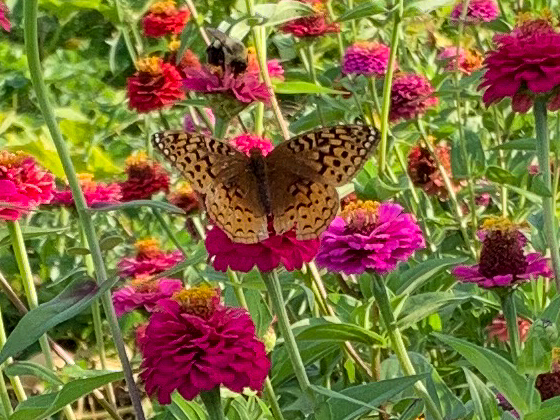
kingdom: Animalia
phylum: Arthropoda
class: Insecta
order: Lepidoptera
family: Nymphalidae
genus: Speyeria
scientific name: Speyeria cybele
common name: Great spangled fritillary
